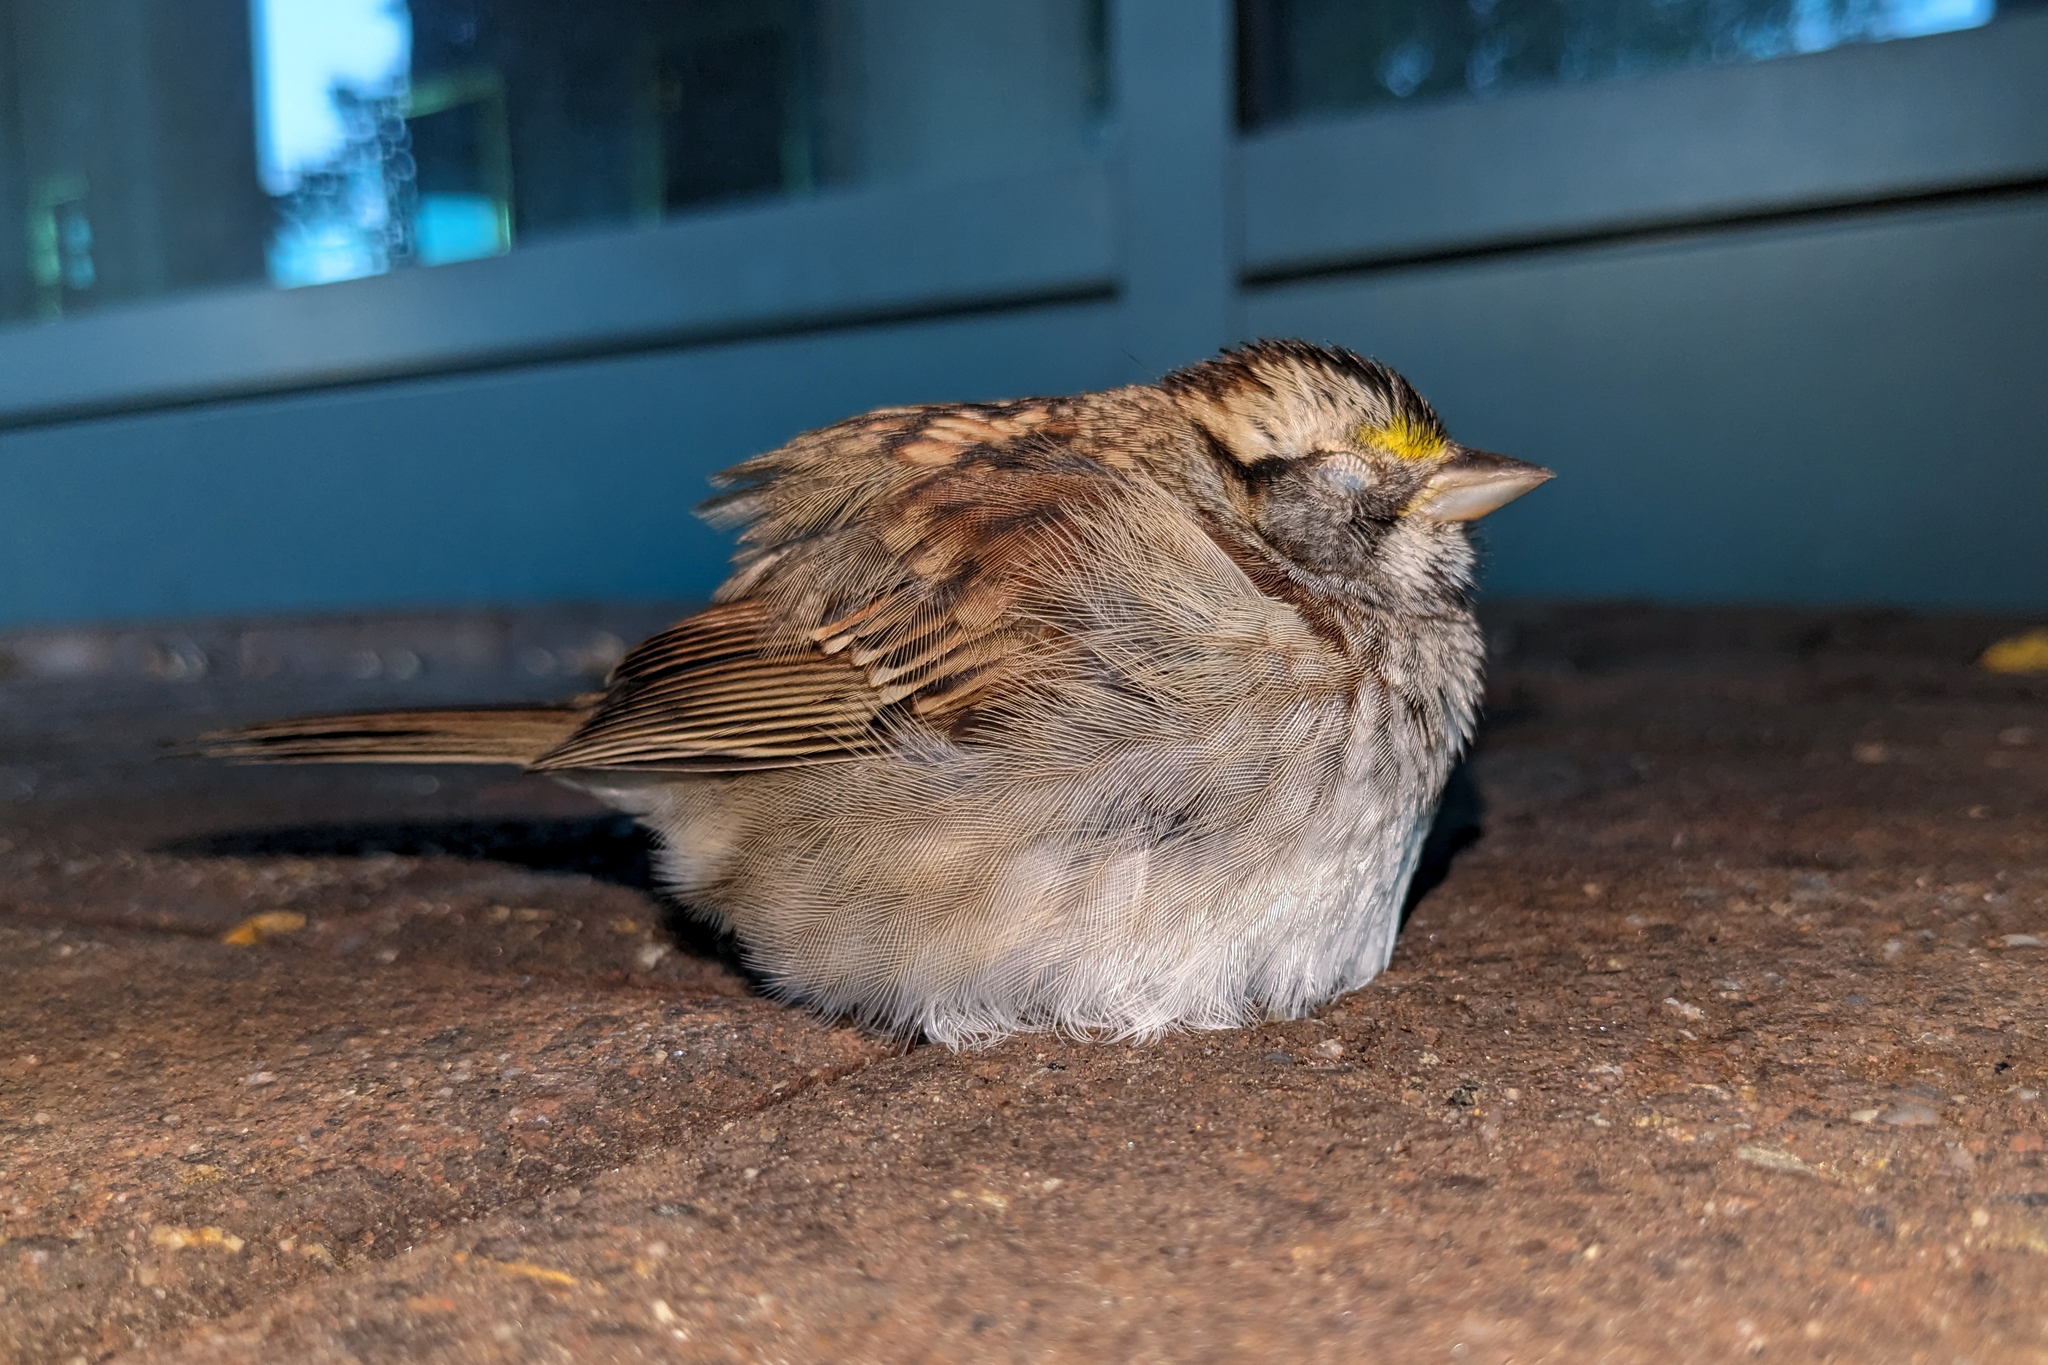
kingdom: Animalia
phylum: Chordata
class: Aves
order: Passeriformes
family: Passerellidae
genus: Zonotrichia
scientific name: Zonotrichia albicollis
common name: White-throated sparrow
